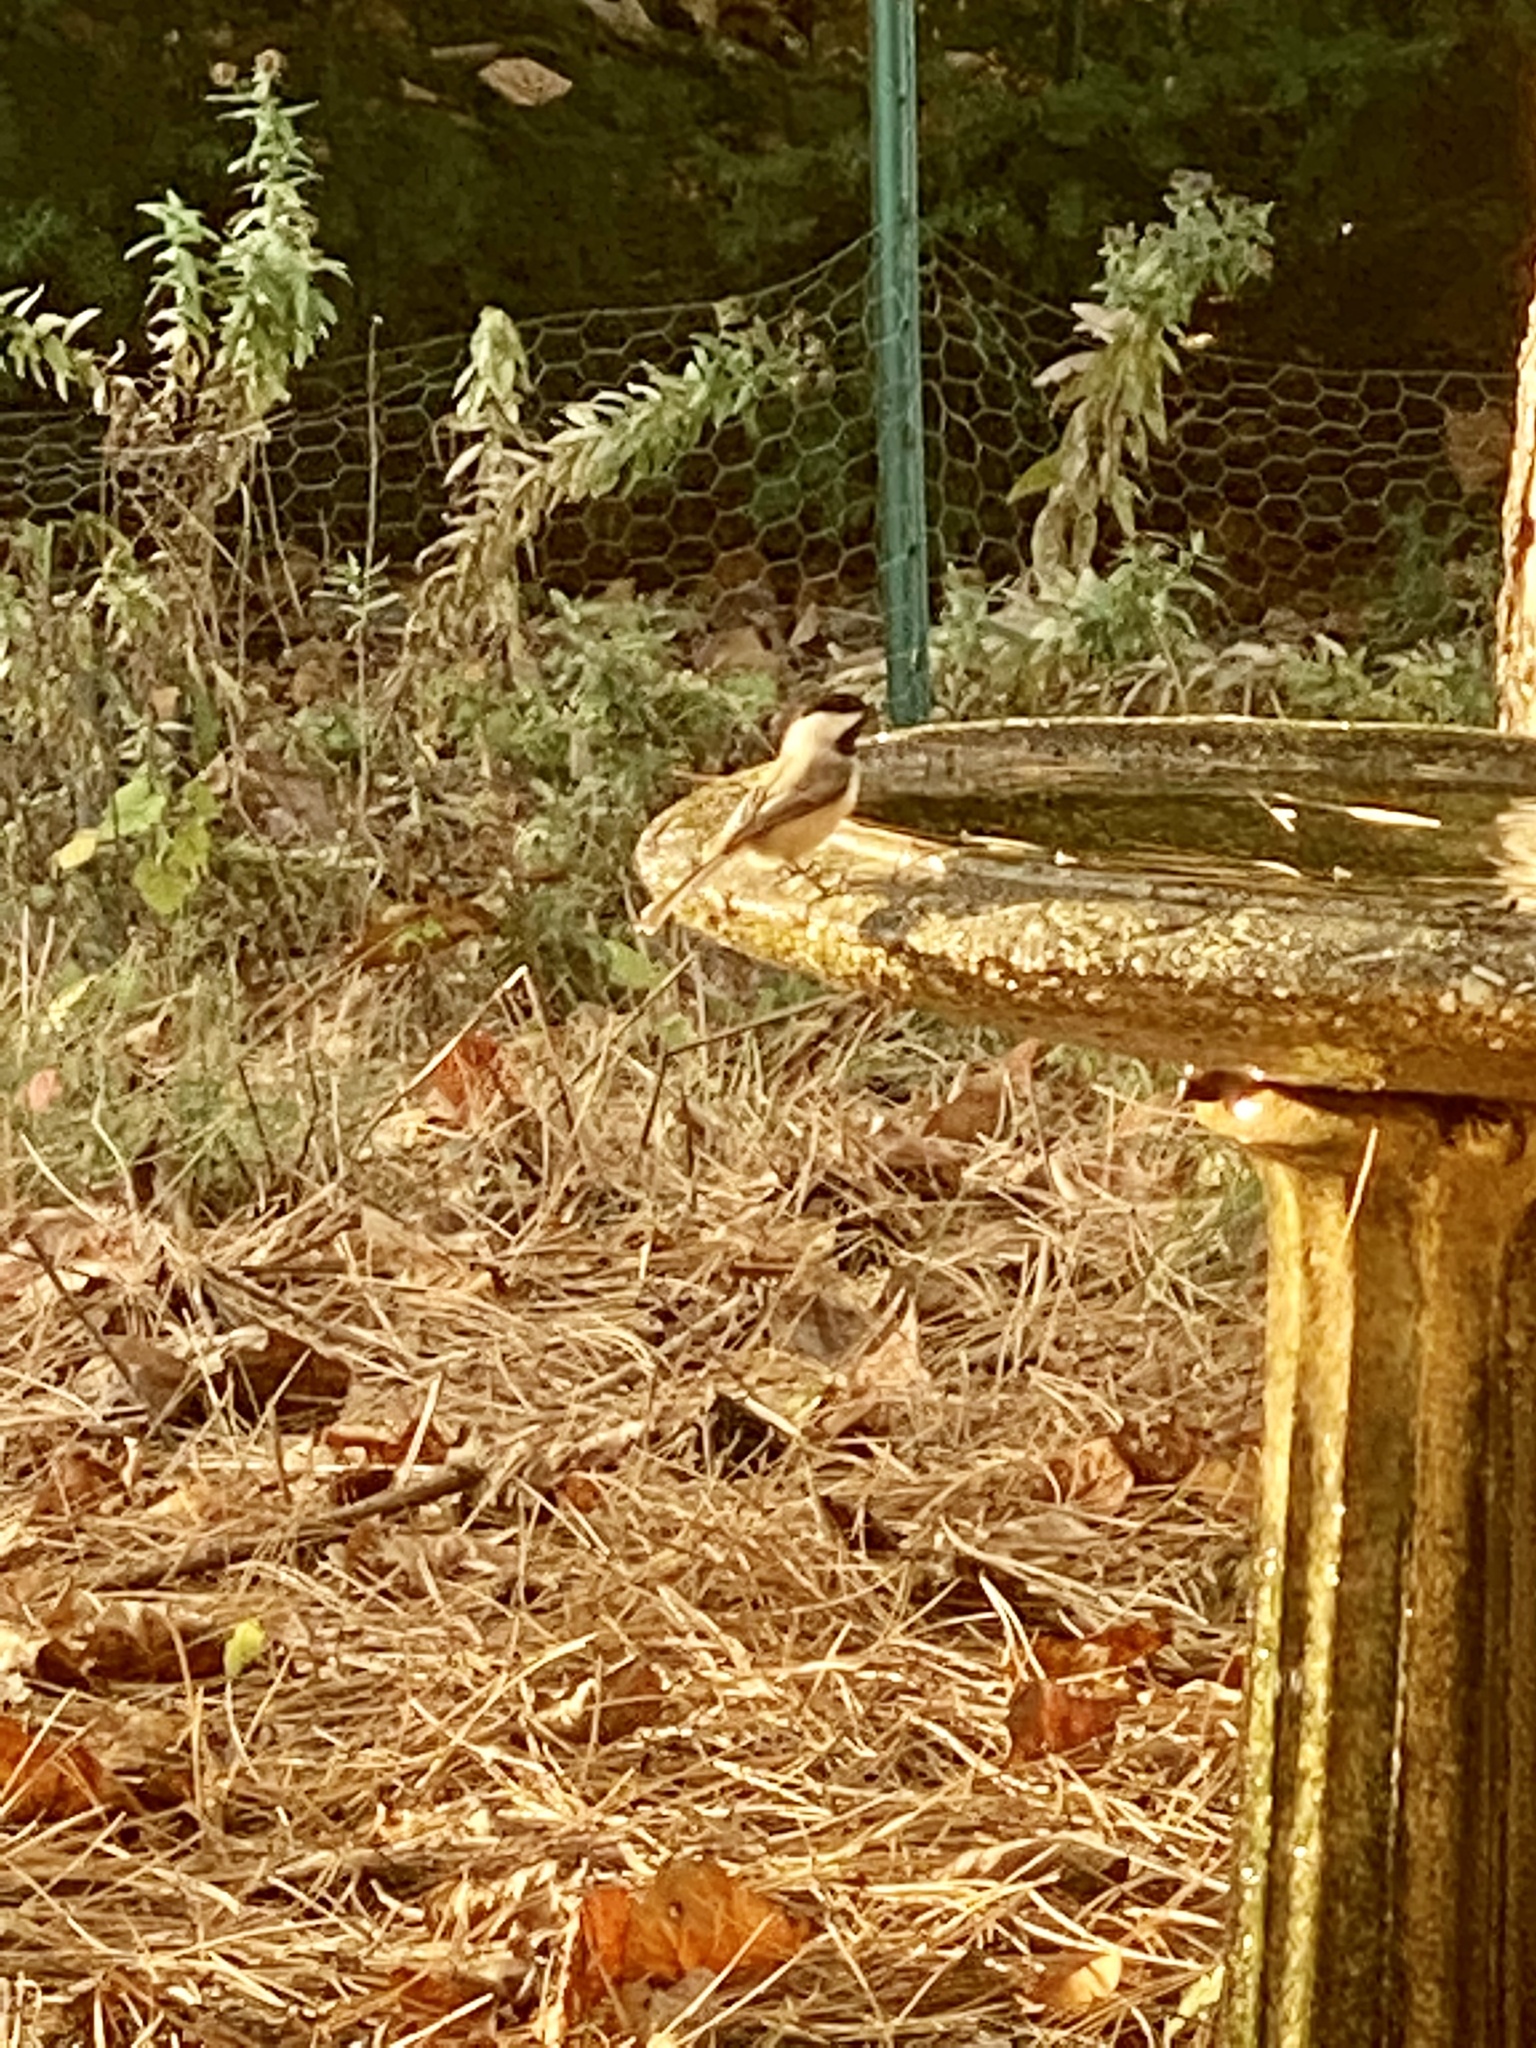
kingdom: Animalia
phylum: Chordata
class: Aves
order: Passeriformes
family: Paridae
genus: Poecile
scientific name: Poecile atricapillus
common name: Black-capped chickadee
